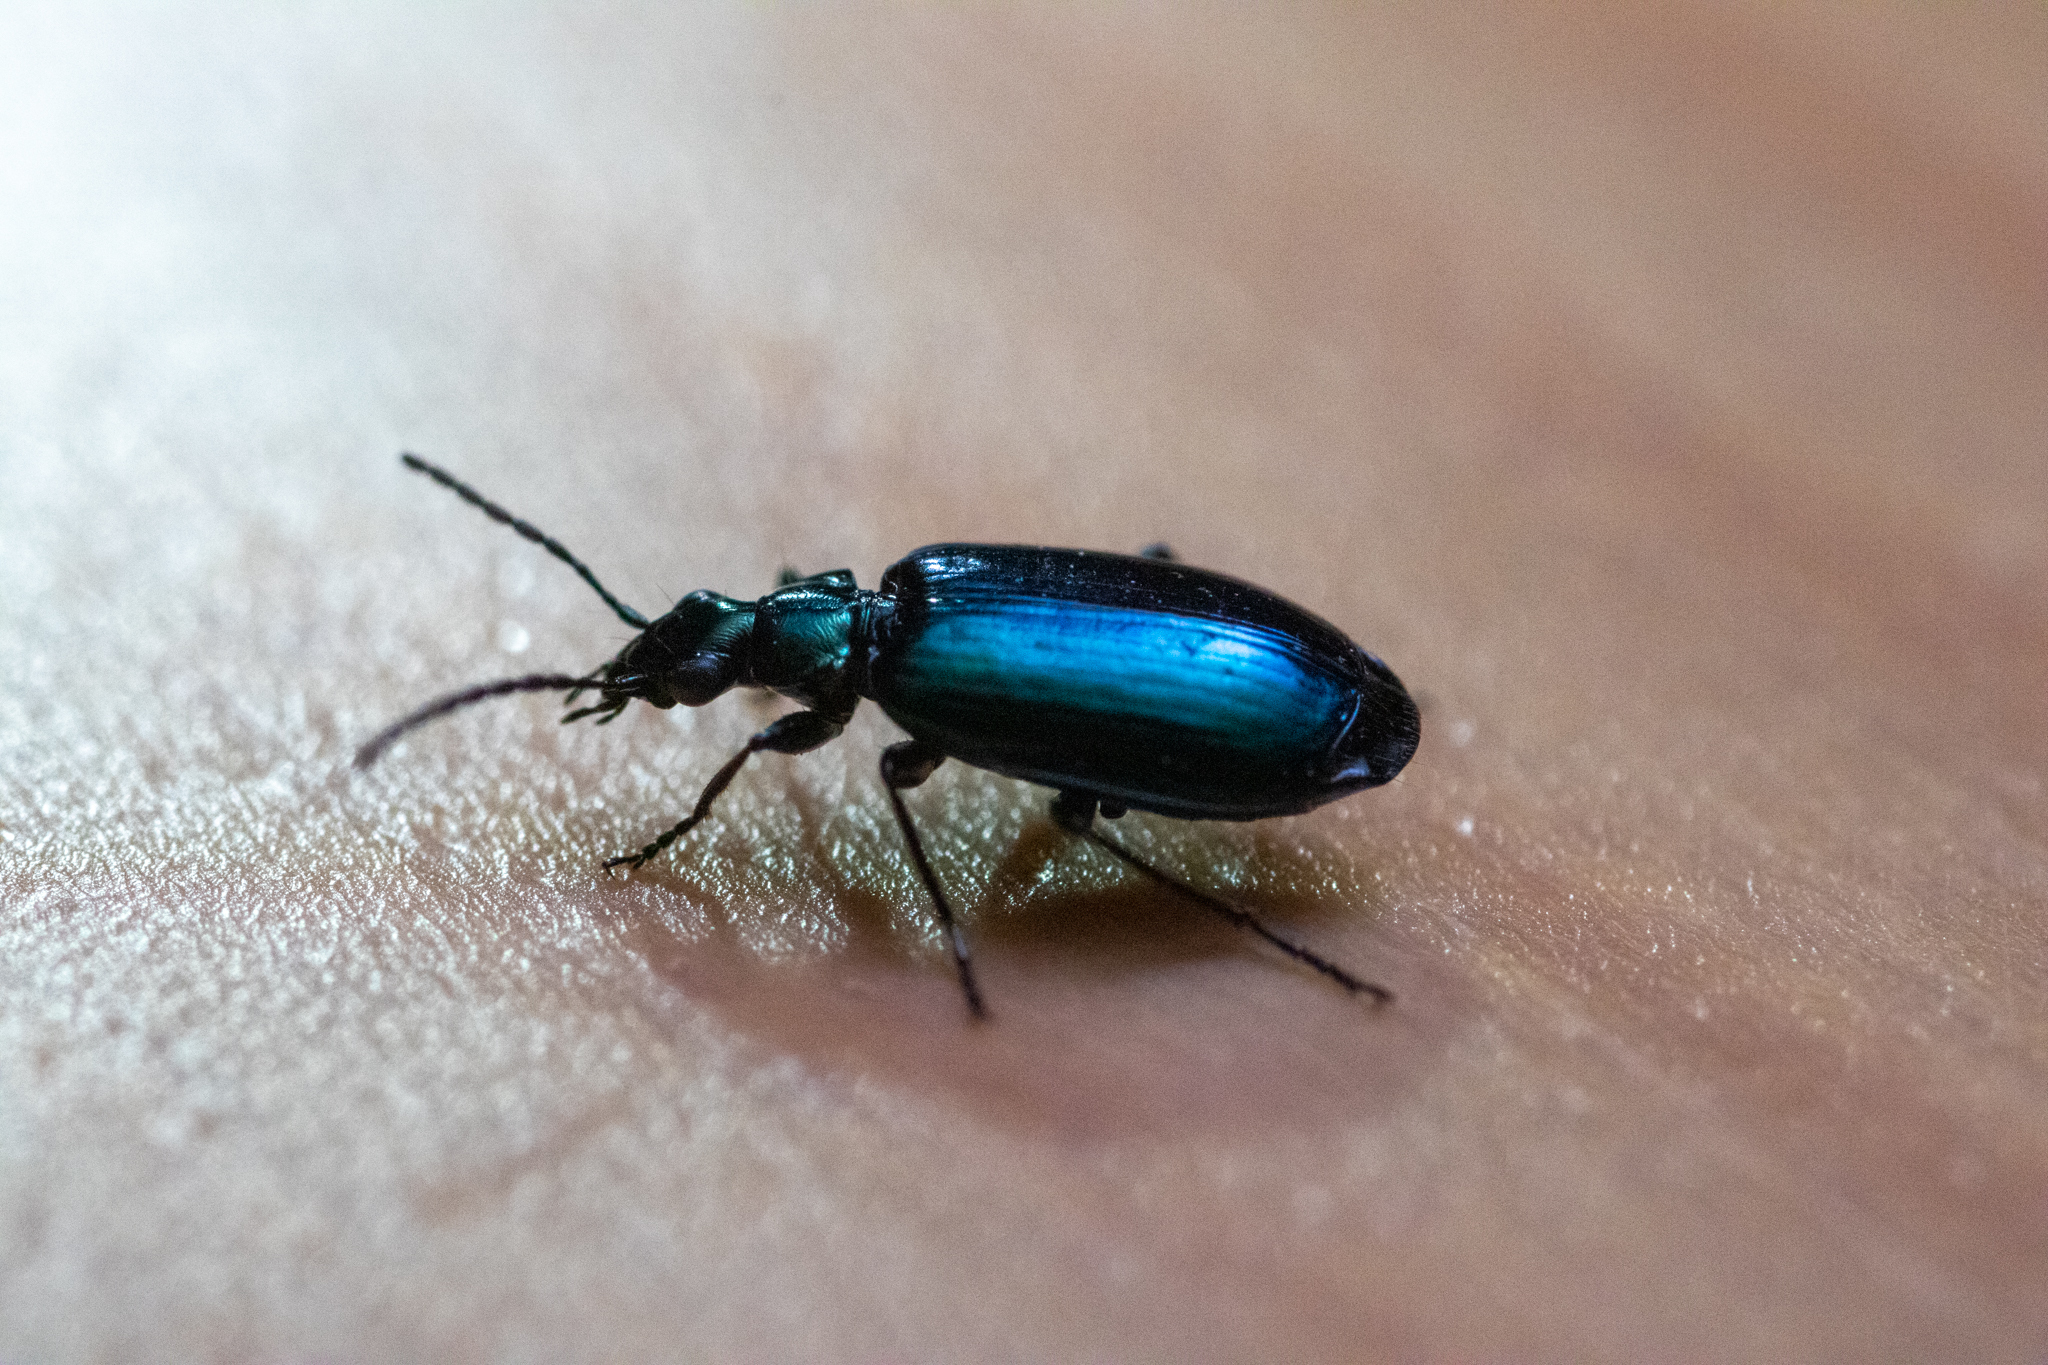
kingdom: Animalia
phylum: Arthropoda
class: Insecta
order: Coleoptera
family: Carabidae
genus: Lebia
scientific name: Lebia viridis
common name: Flower lebia beetle
